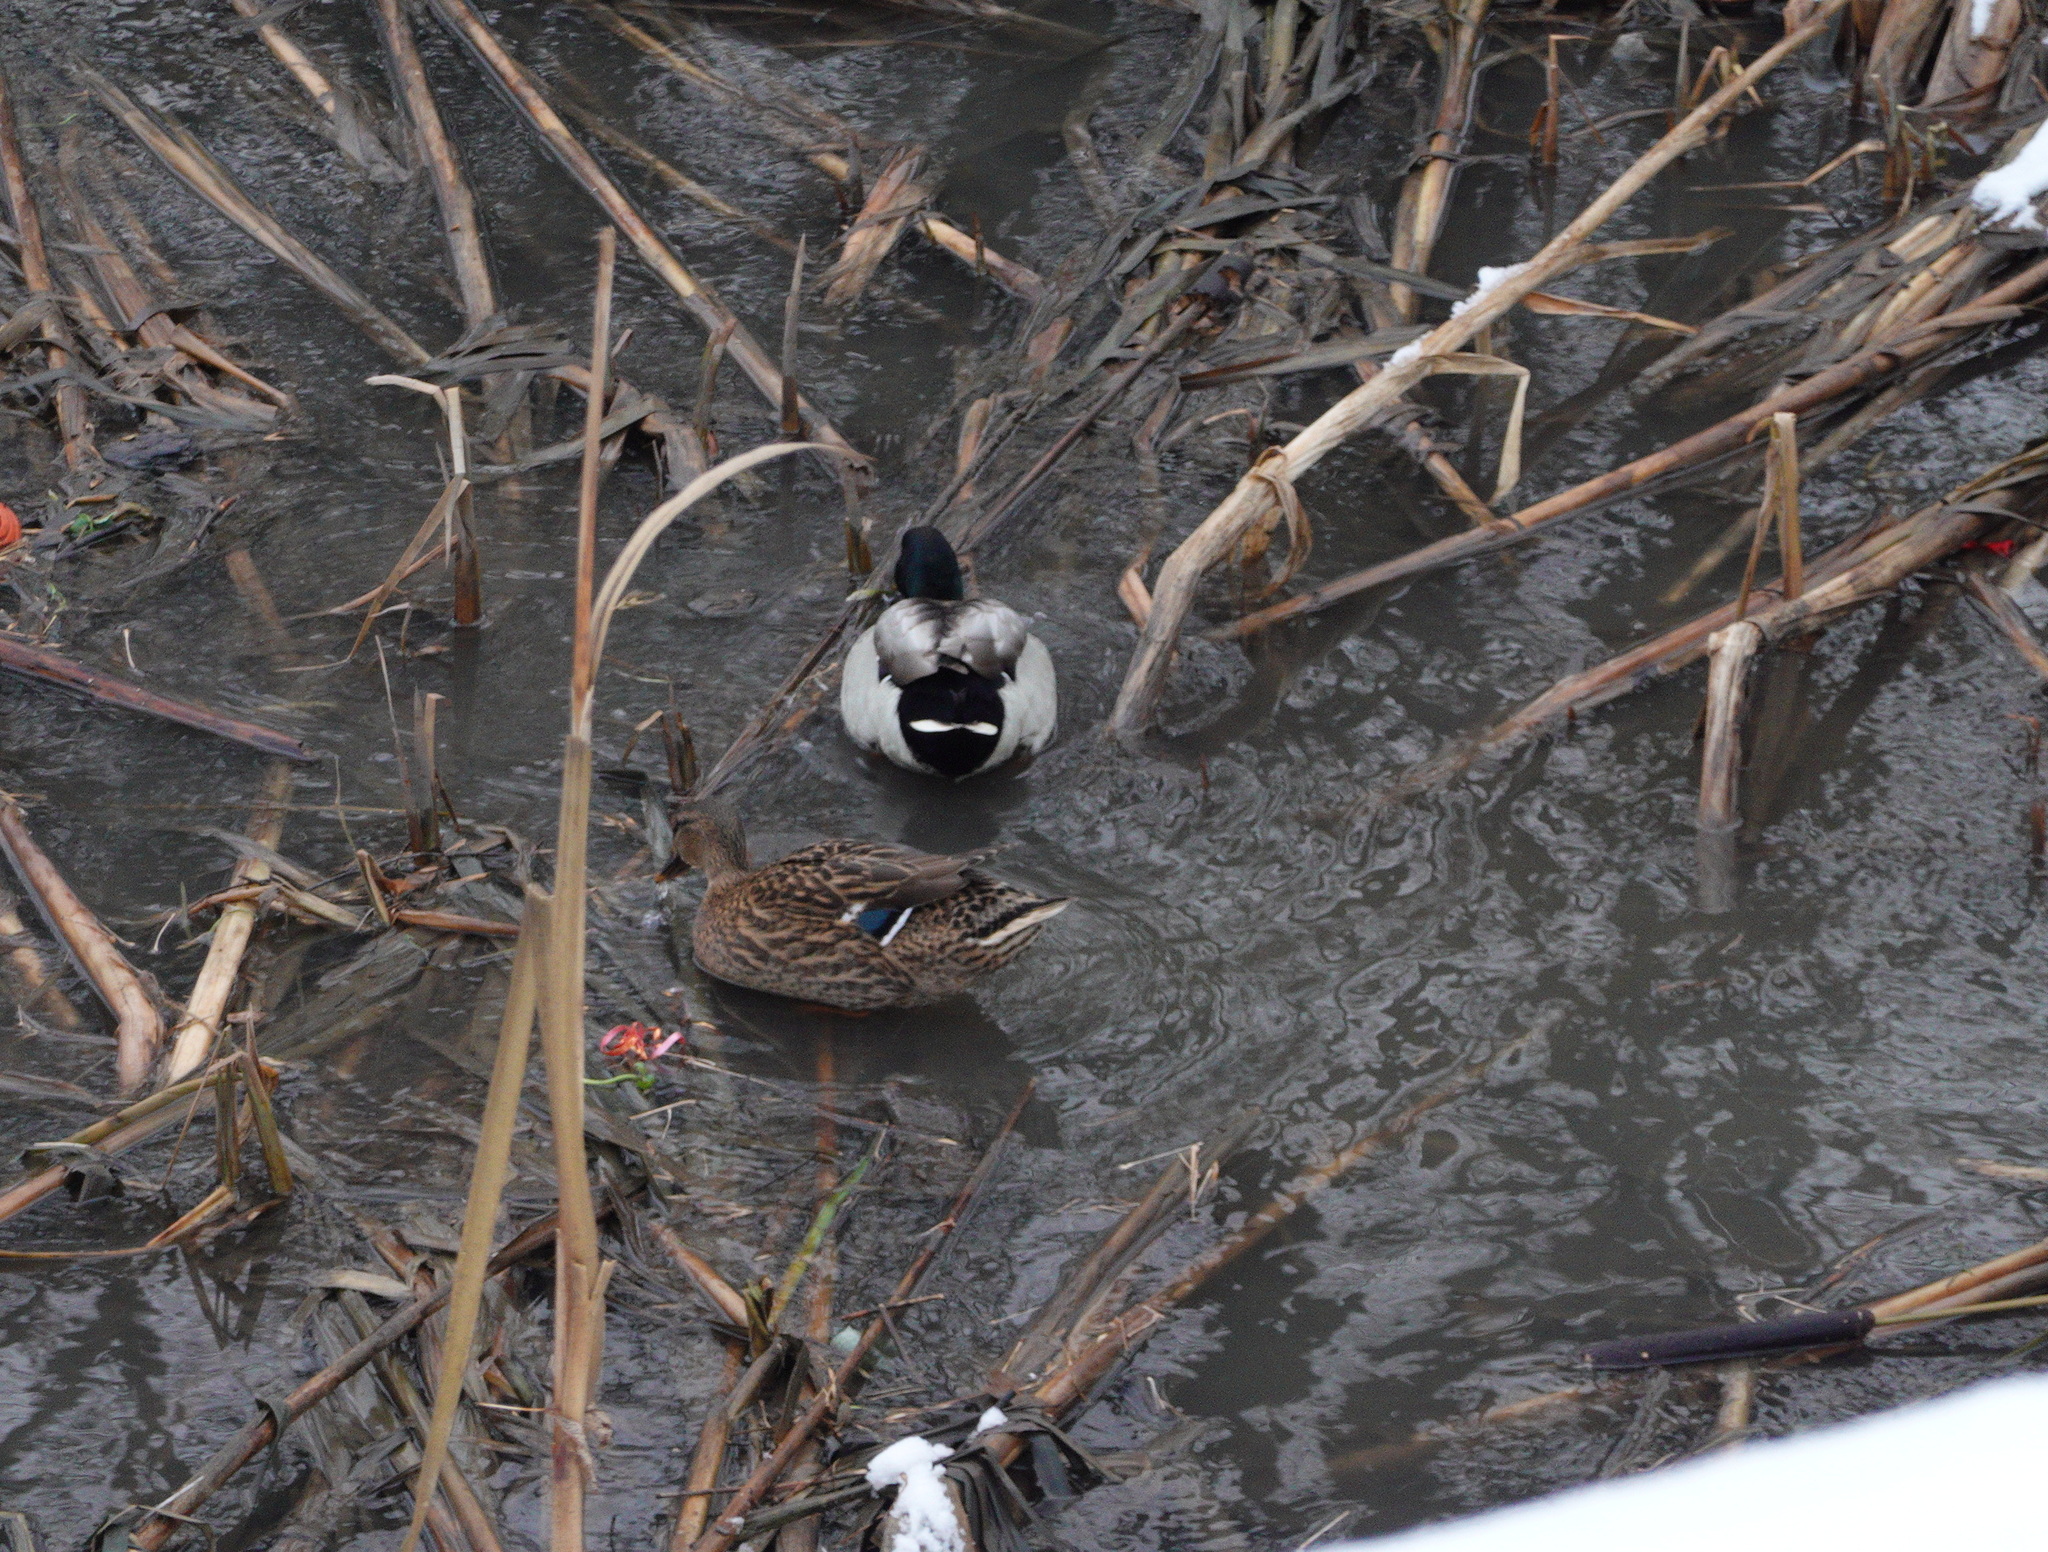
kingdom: Animalia
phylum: Chordata
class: Aves
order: Anseriformes
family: Anatidae
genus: Anas
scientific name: Anas platyrhynchos
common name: Mallard
